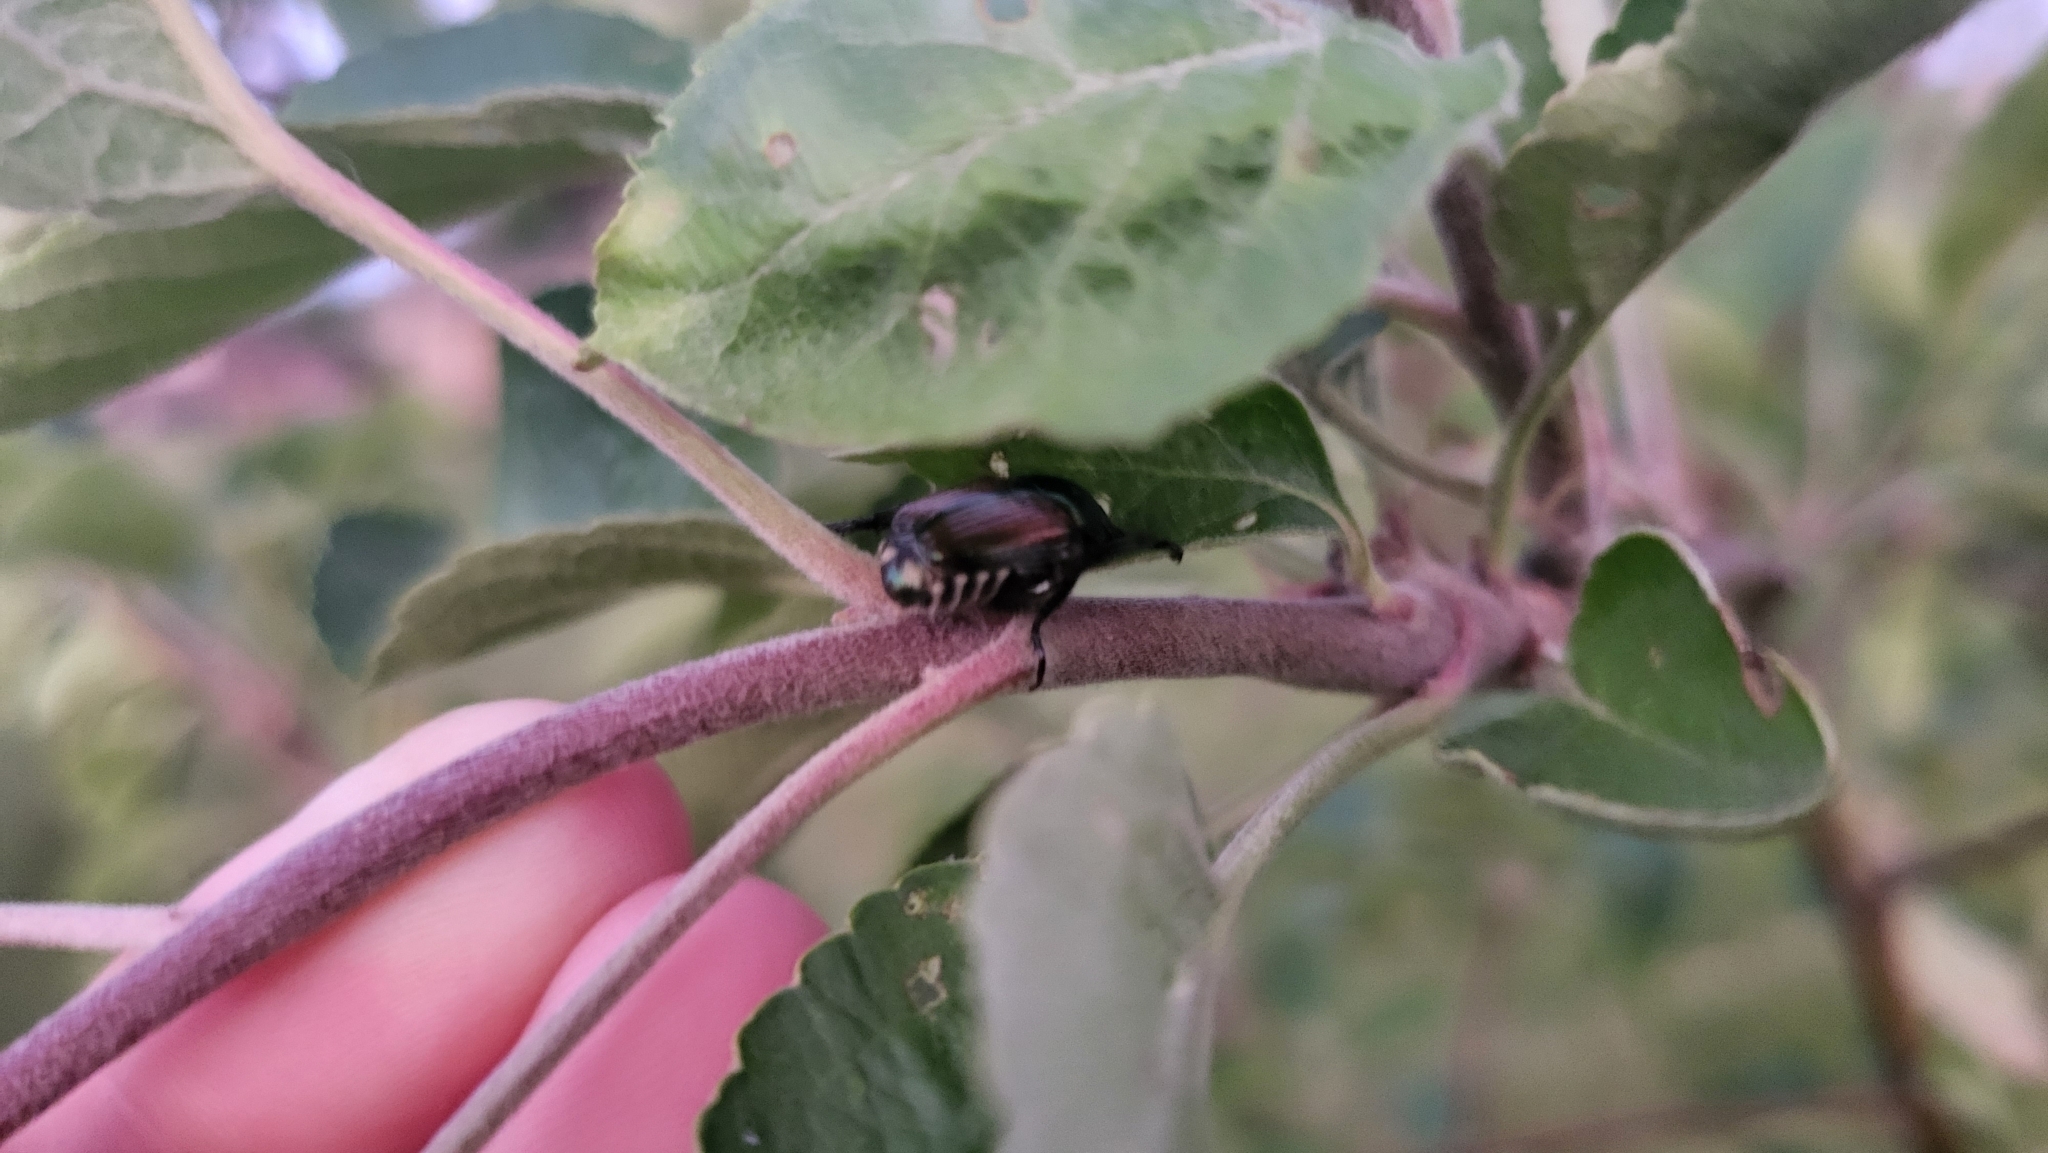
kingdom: Animalia
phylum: Arthropoda
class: Insecta
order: Coleoptera
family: Scarabaeidae
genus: Popillia
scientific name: Popillia japonica
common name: Japanese beetle
